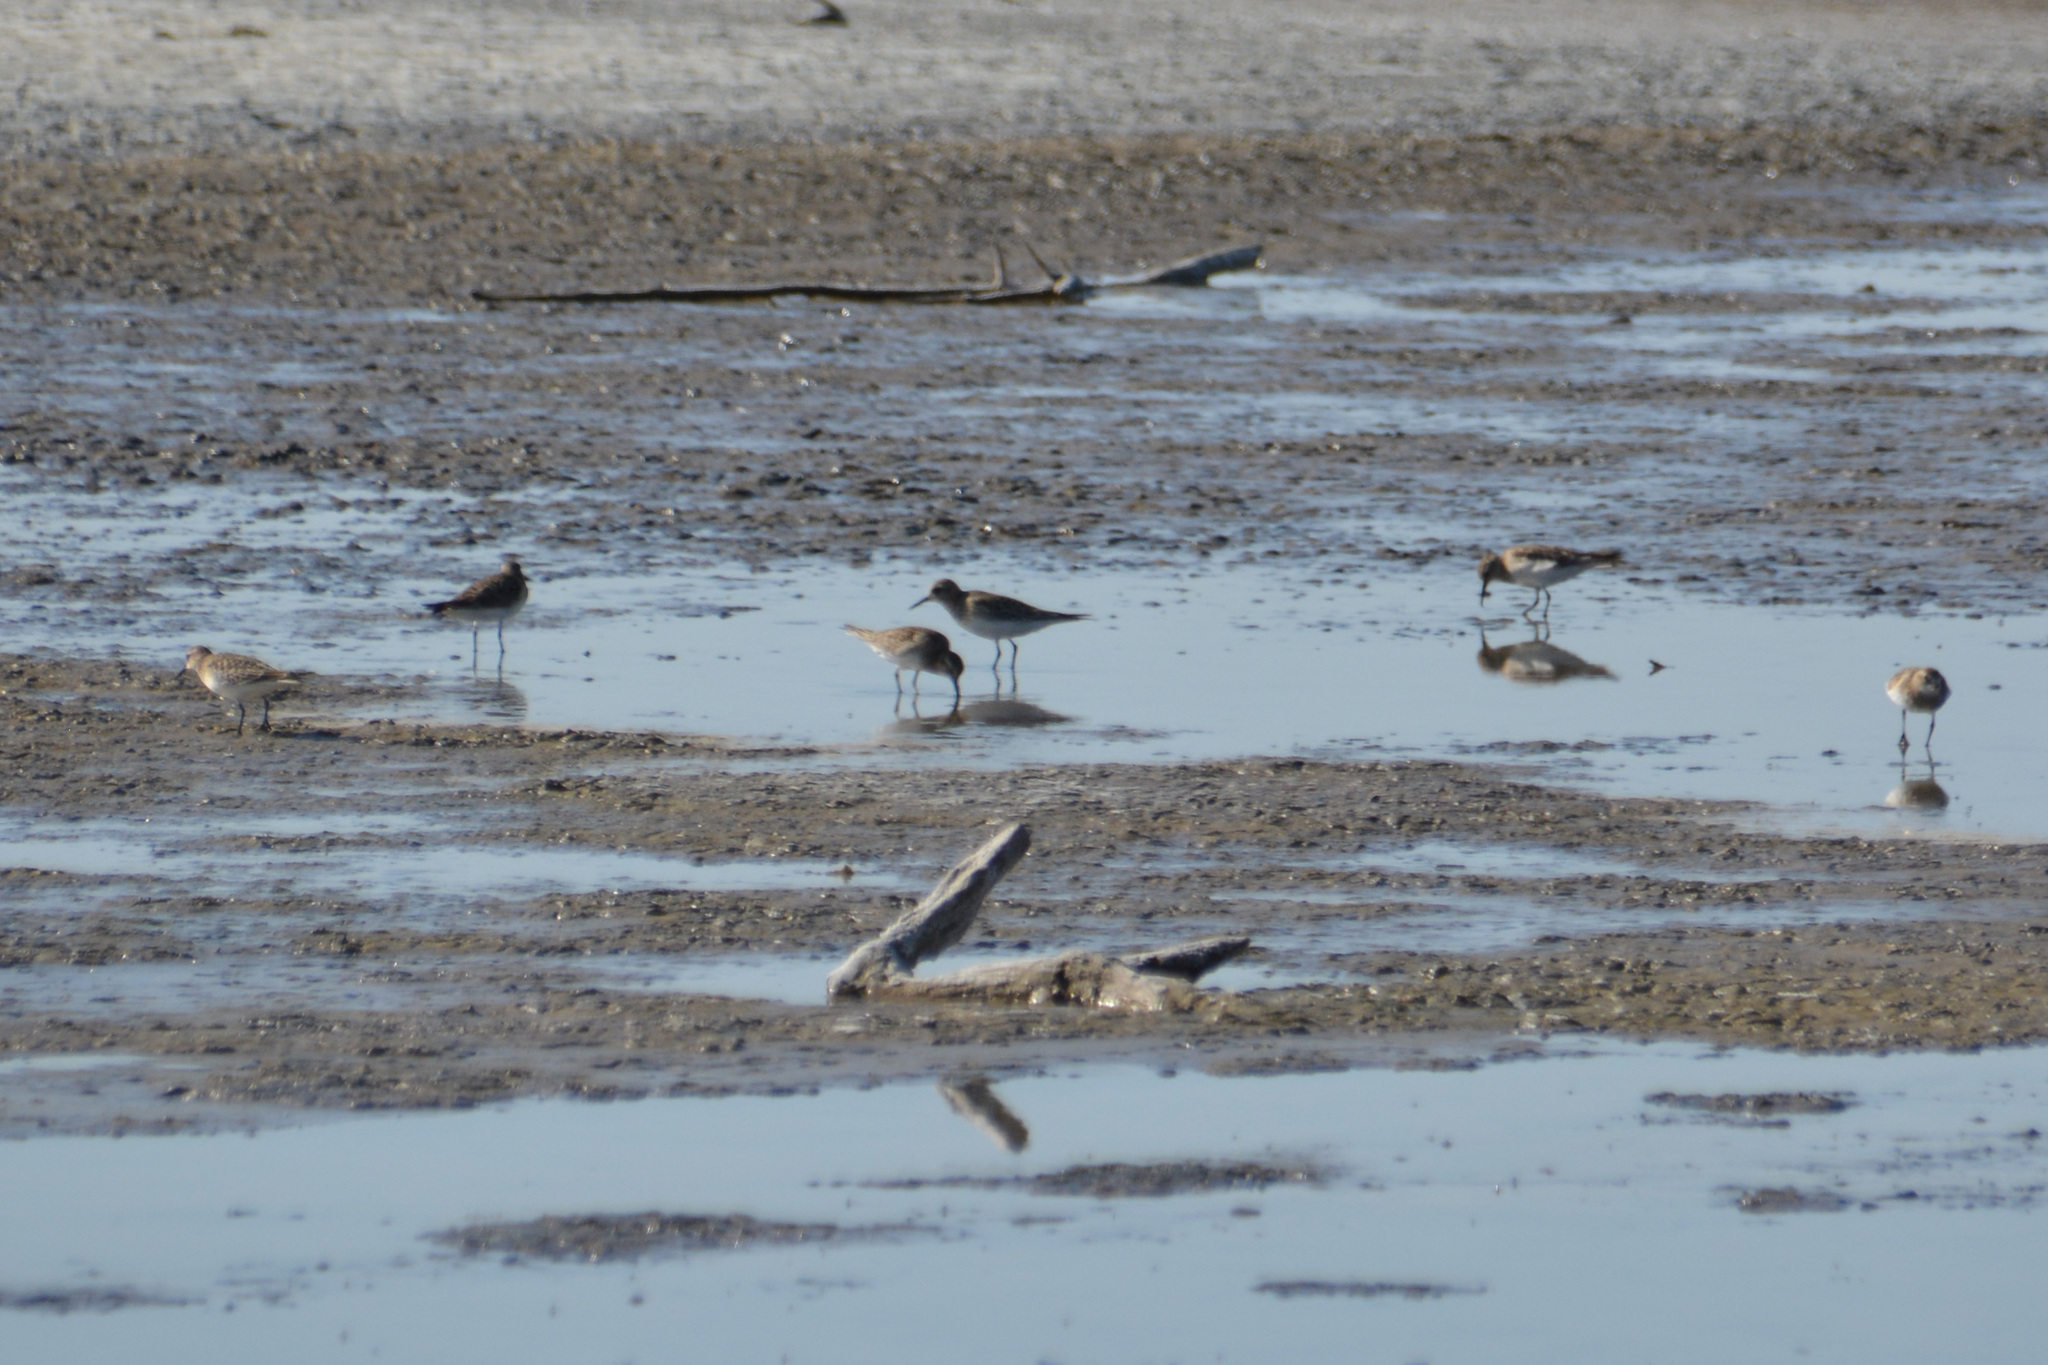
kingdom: Animalia
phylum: Chordata
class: Aves
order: Charadriiformes
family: Scolopacidae
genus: Calidris
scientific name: Calidris bairdii
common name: Baird's sandpiper
